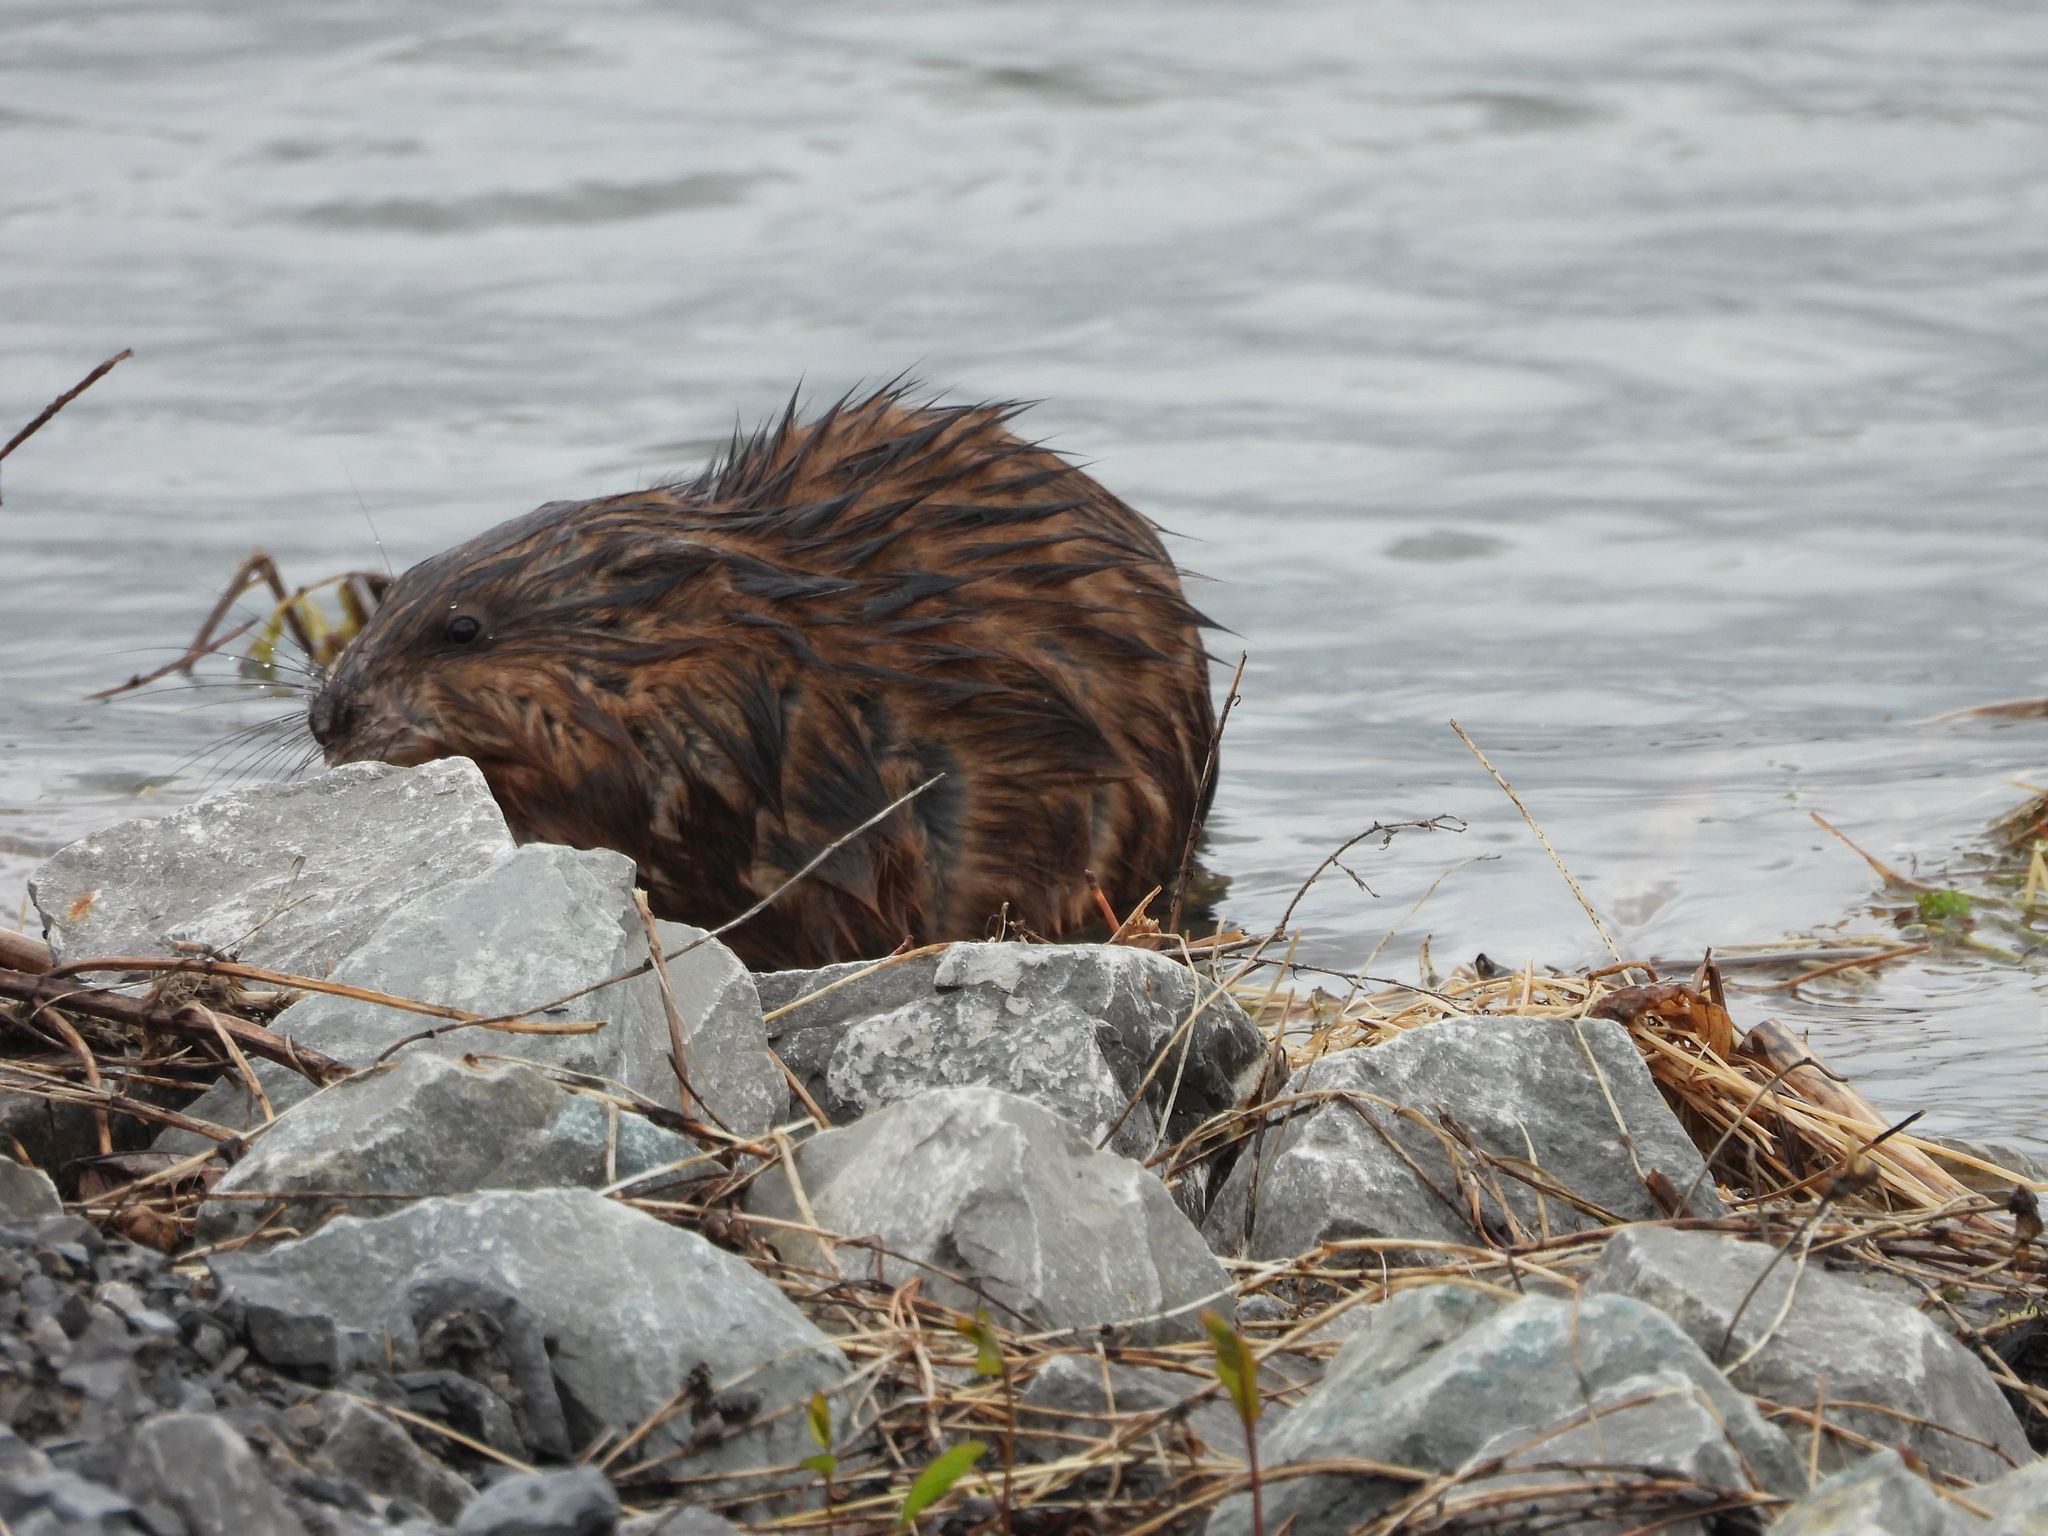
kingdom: Animalia
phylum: Chordata
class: Mammalia
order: Rodentia
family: Cricetidae
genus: Ondatra
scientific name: Ondatra zibethicus
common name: Muskrat
